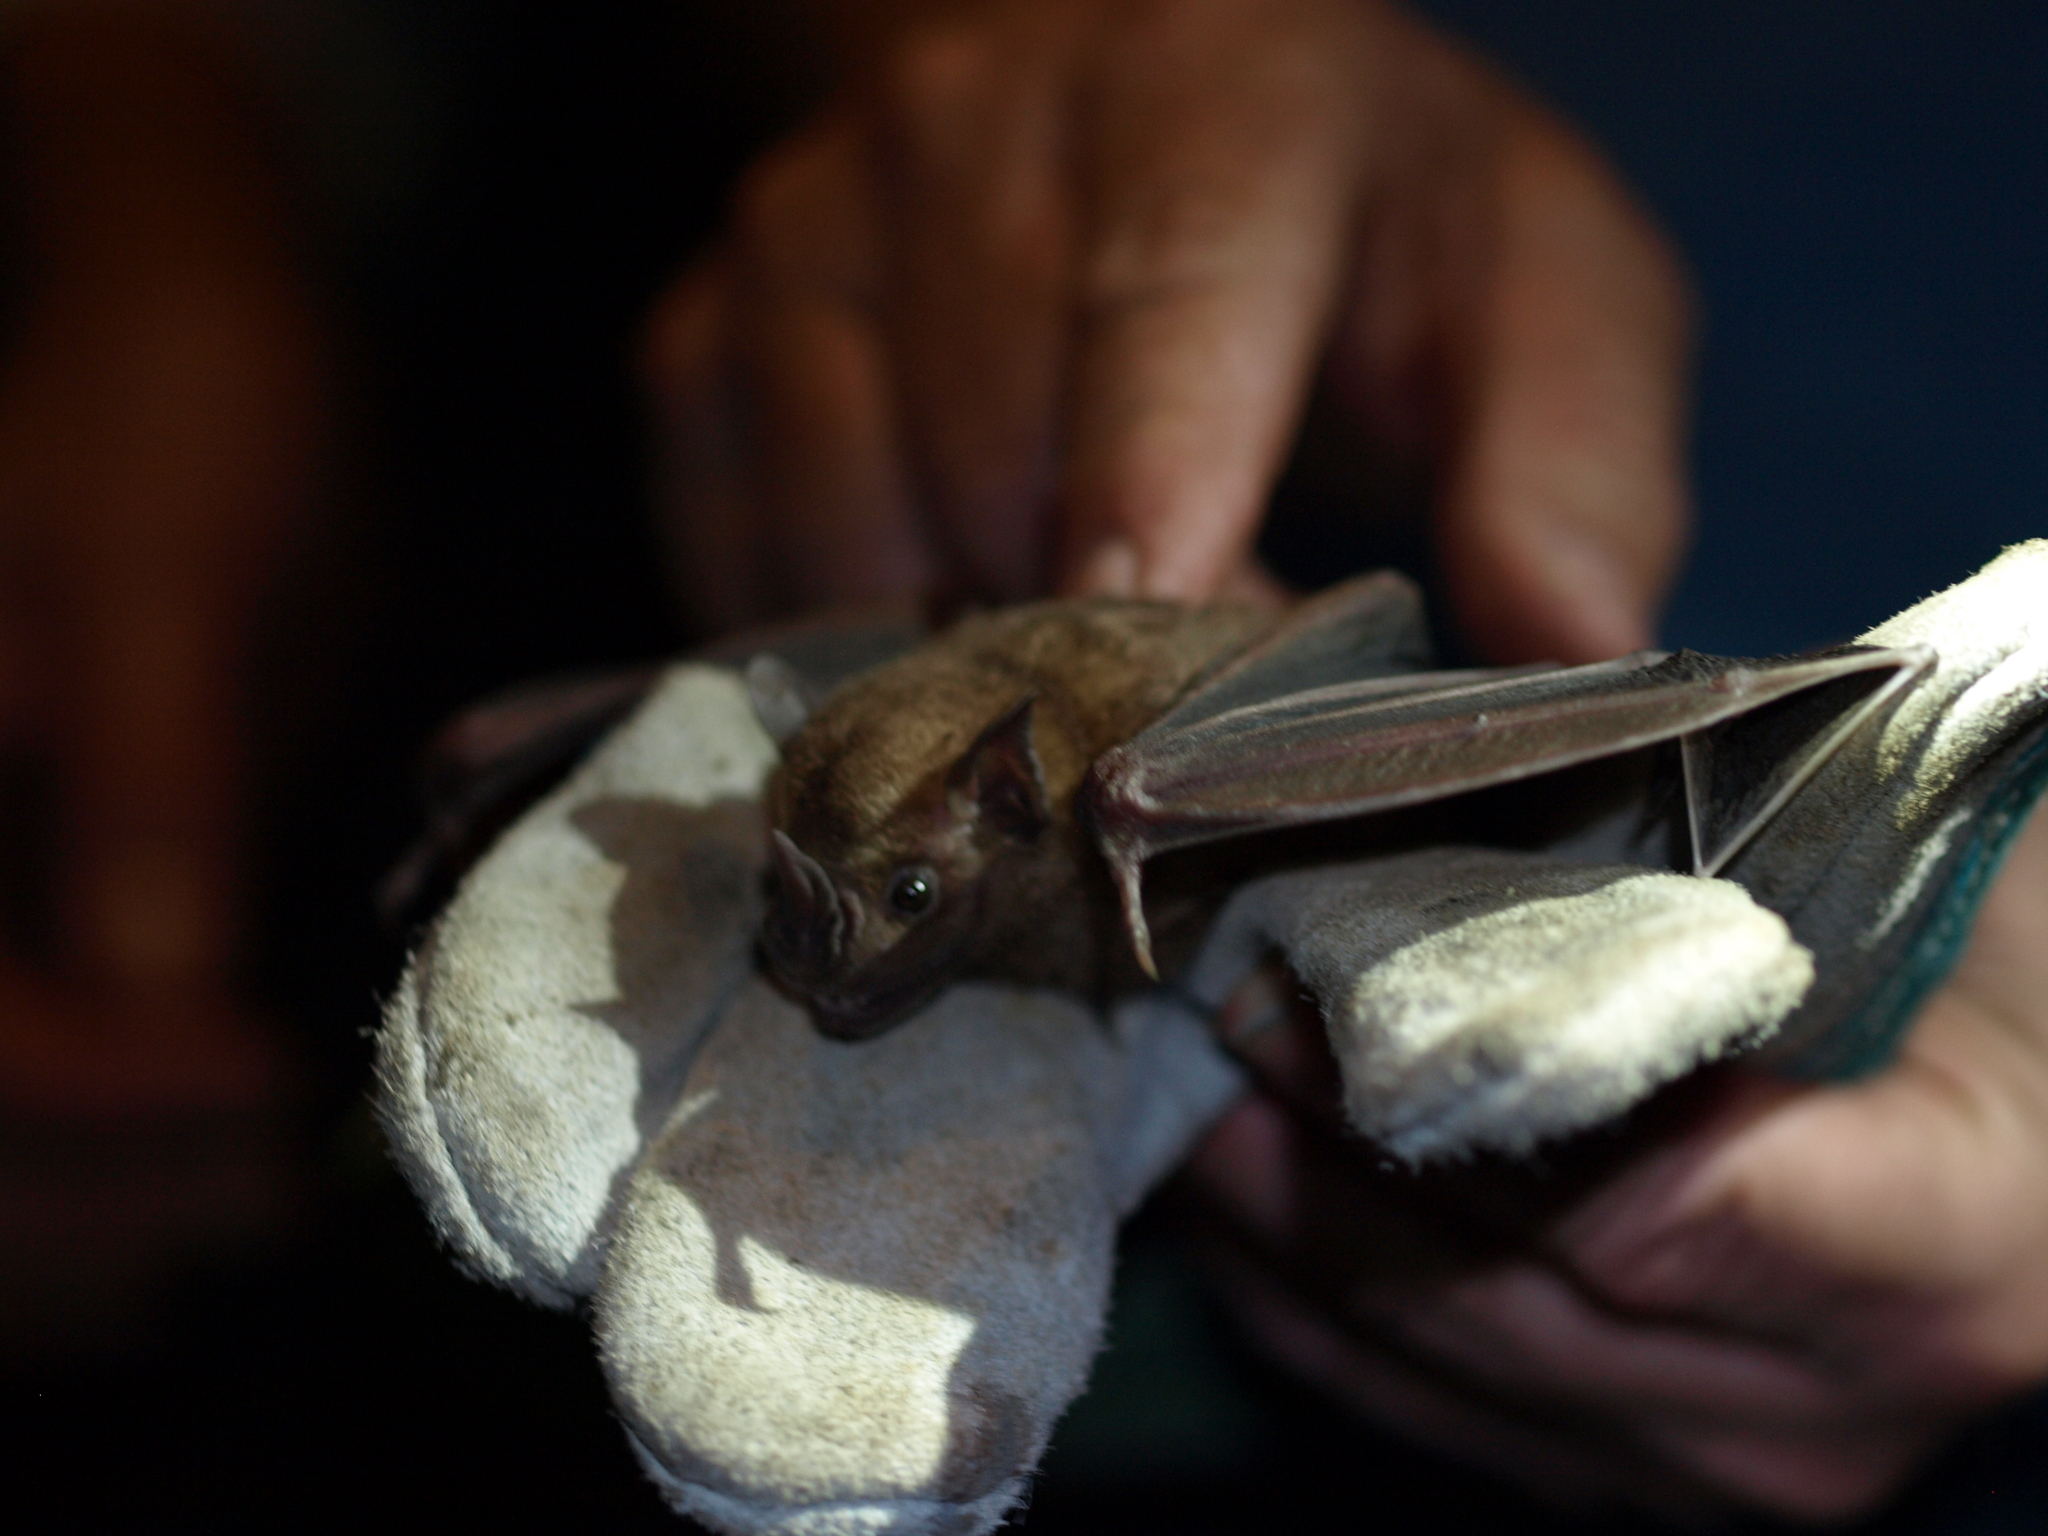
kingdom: Animalia
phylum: Chordata
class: Mammalia
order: Chiroptera
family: Phyllostomidae
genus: Artibeus
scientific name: Artibeus jamaicensis
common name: Jamaican fruit-eating bat
